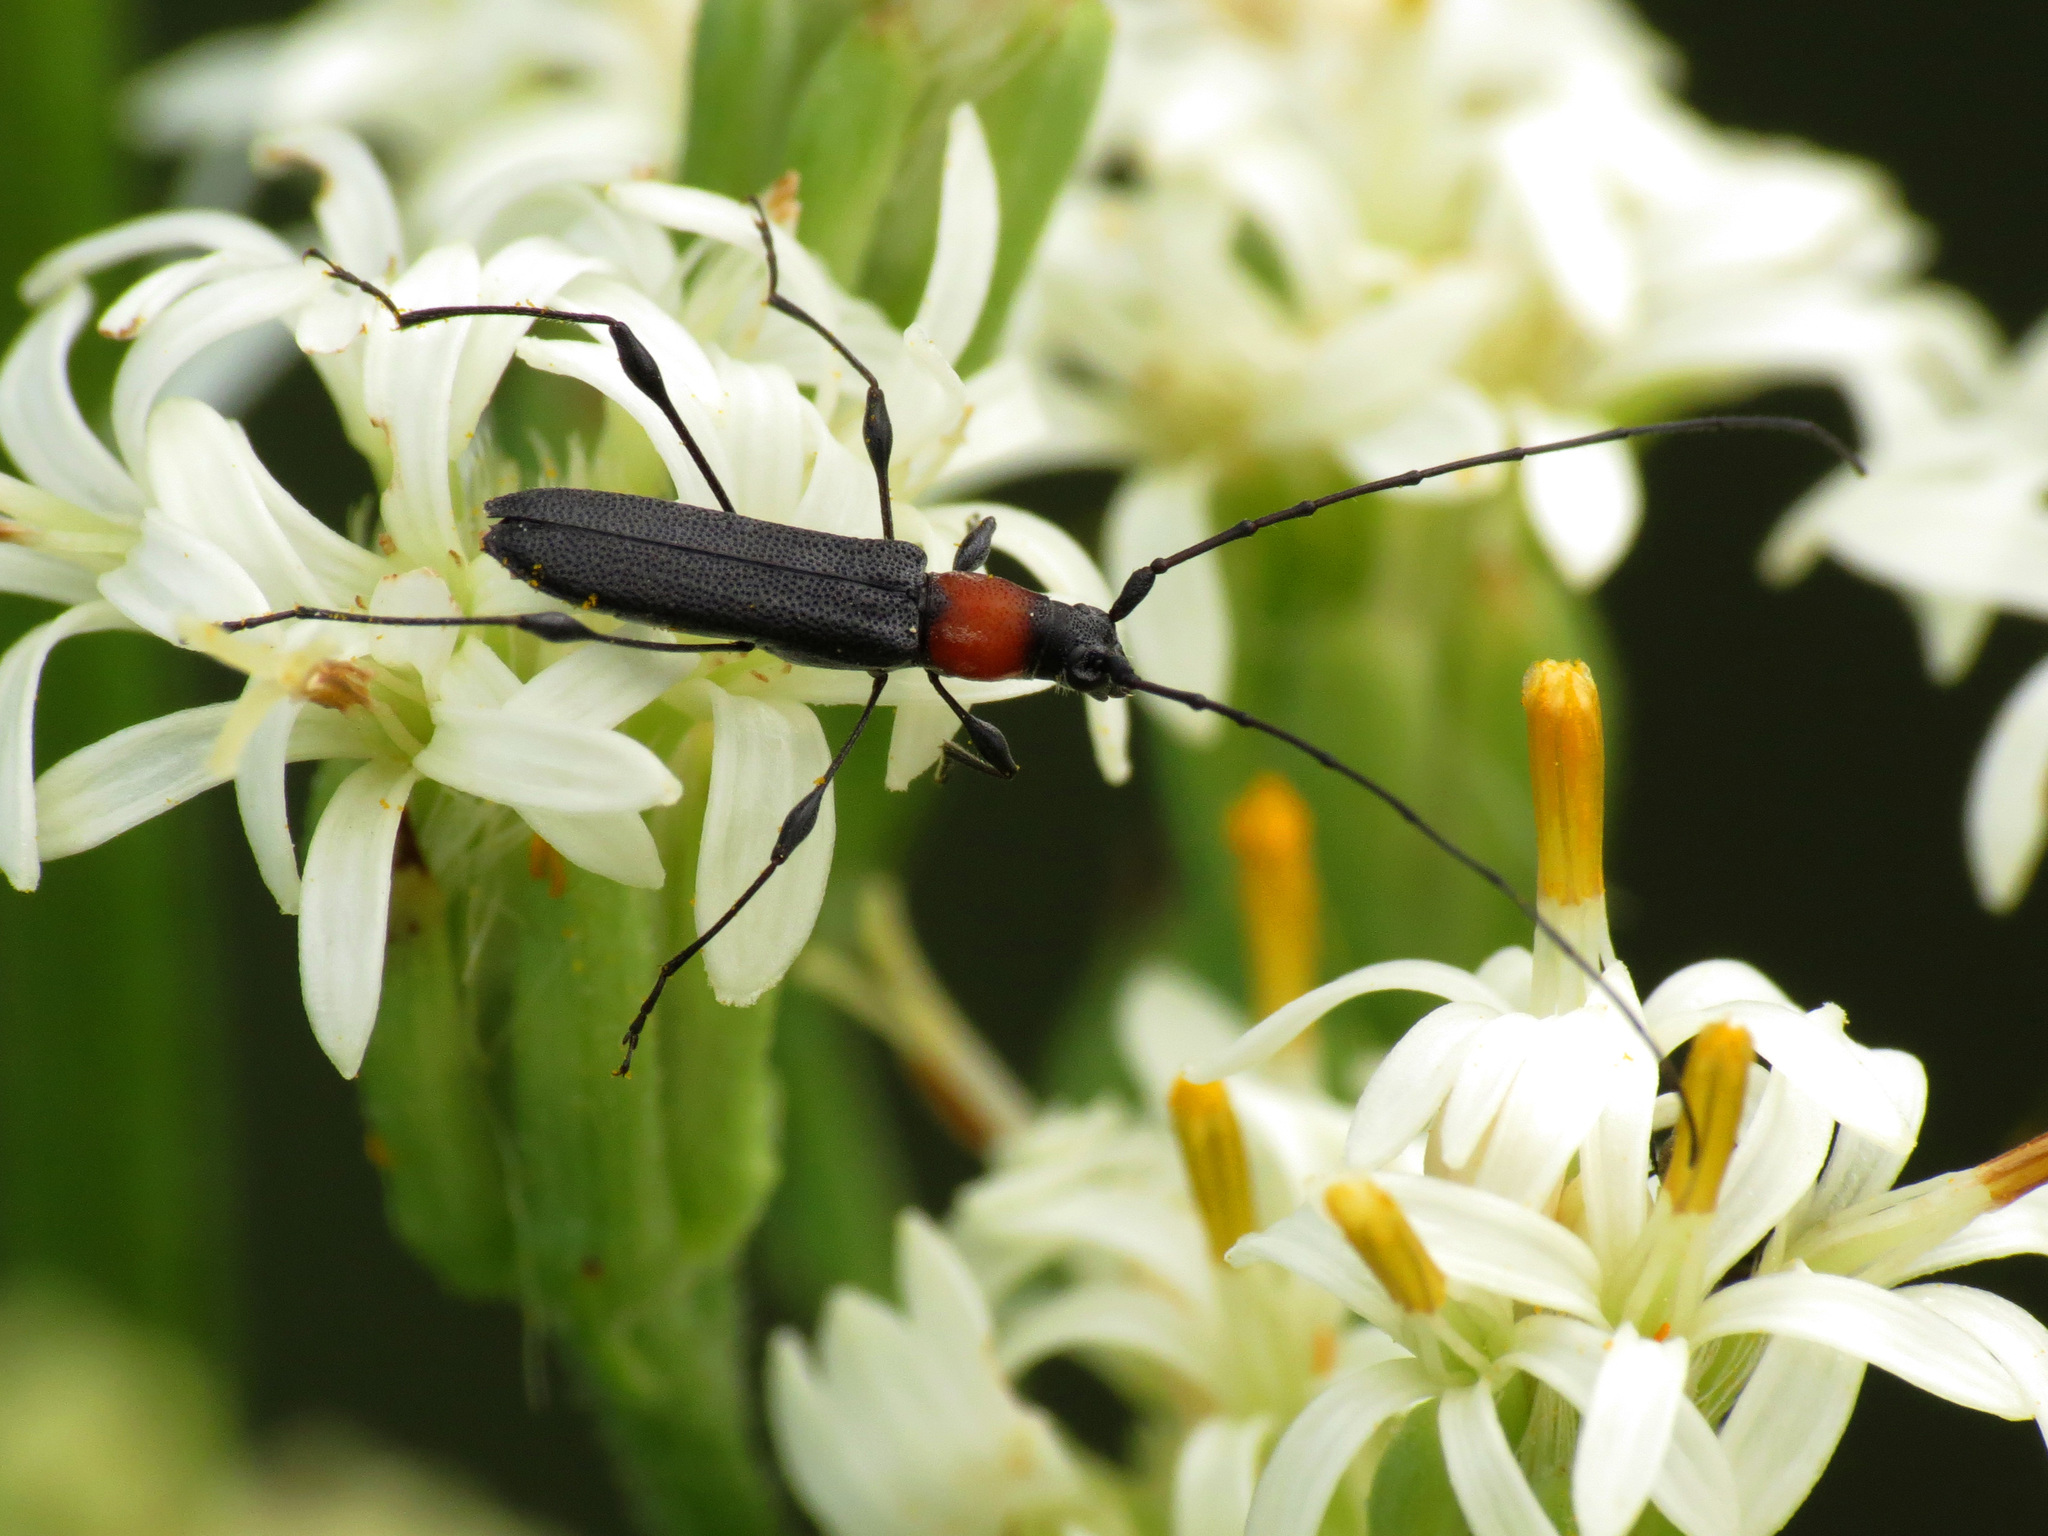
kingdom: Animalia
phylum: Arthropoda
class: Insecta
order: Coleoptera
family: Cerambycidae
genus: Rhopalophora
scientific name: Rhopalophora meeskei
